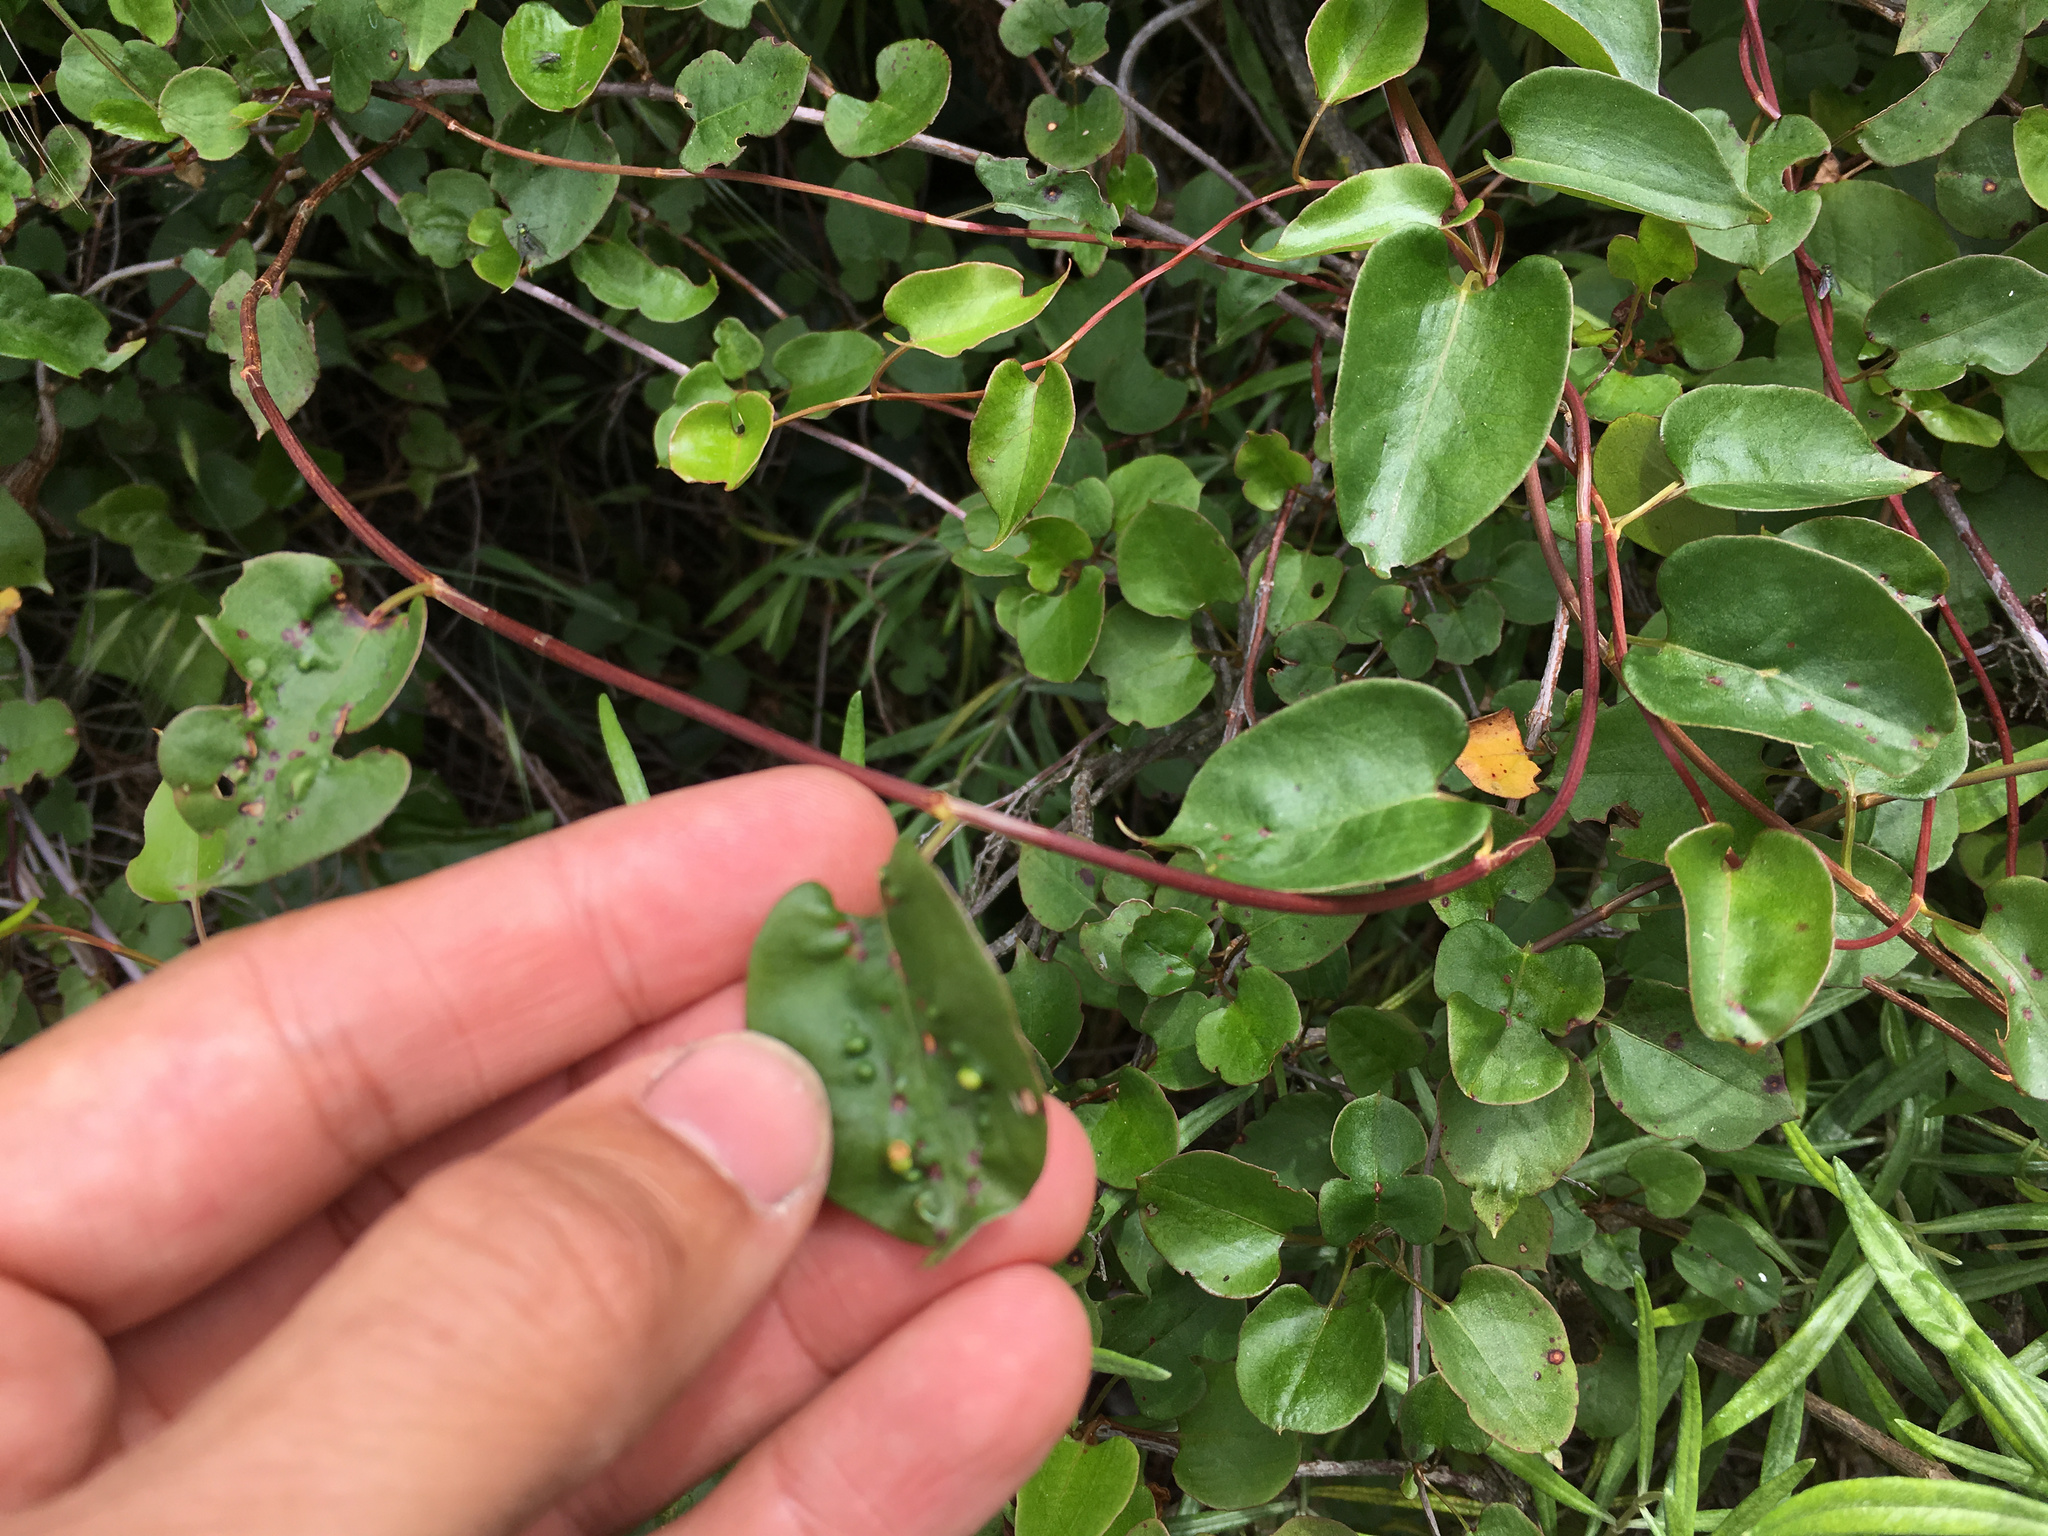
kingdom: Plantae
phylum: Tracheophyta
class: Magnoliopsida
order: Caryophyllales
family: Polygonaceae
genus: Muehlenbeckia
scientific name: Muehlenbeckia australis
